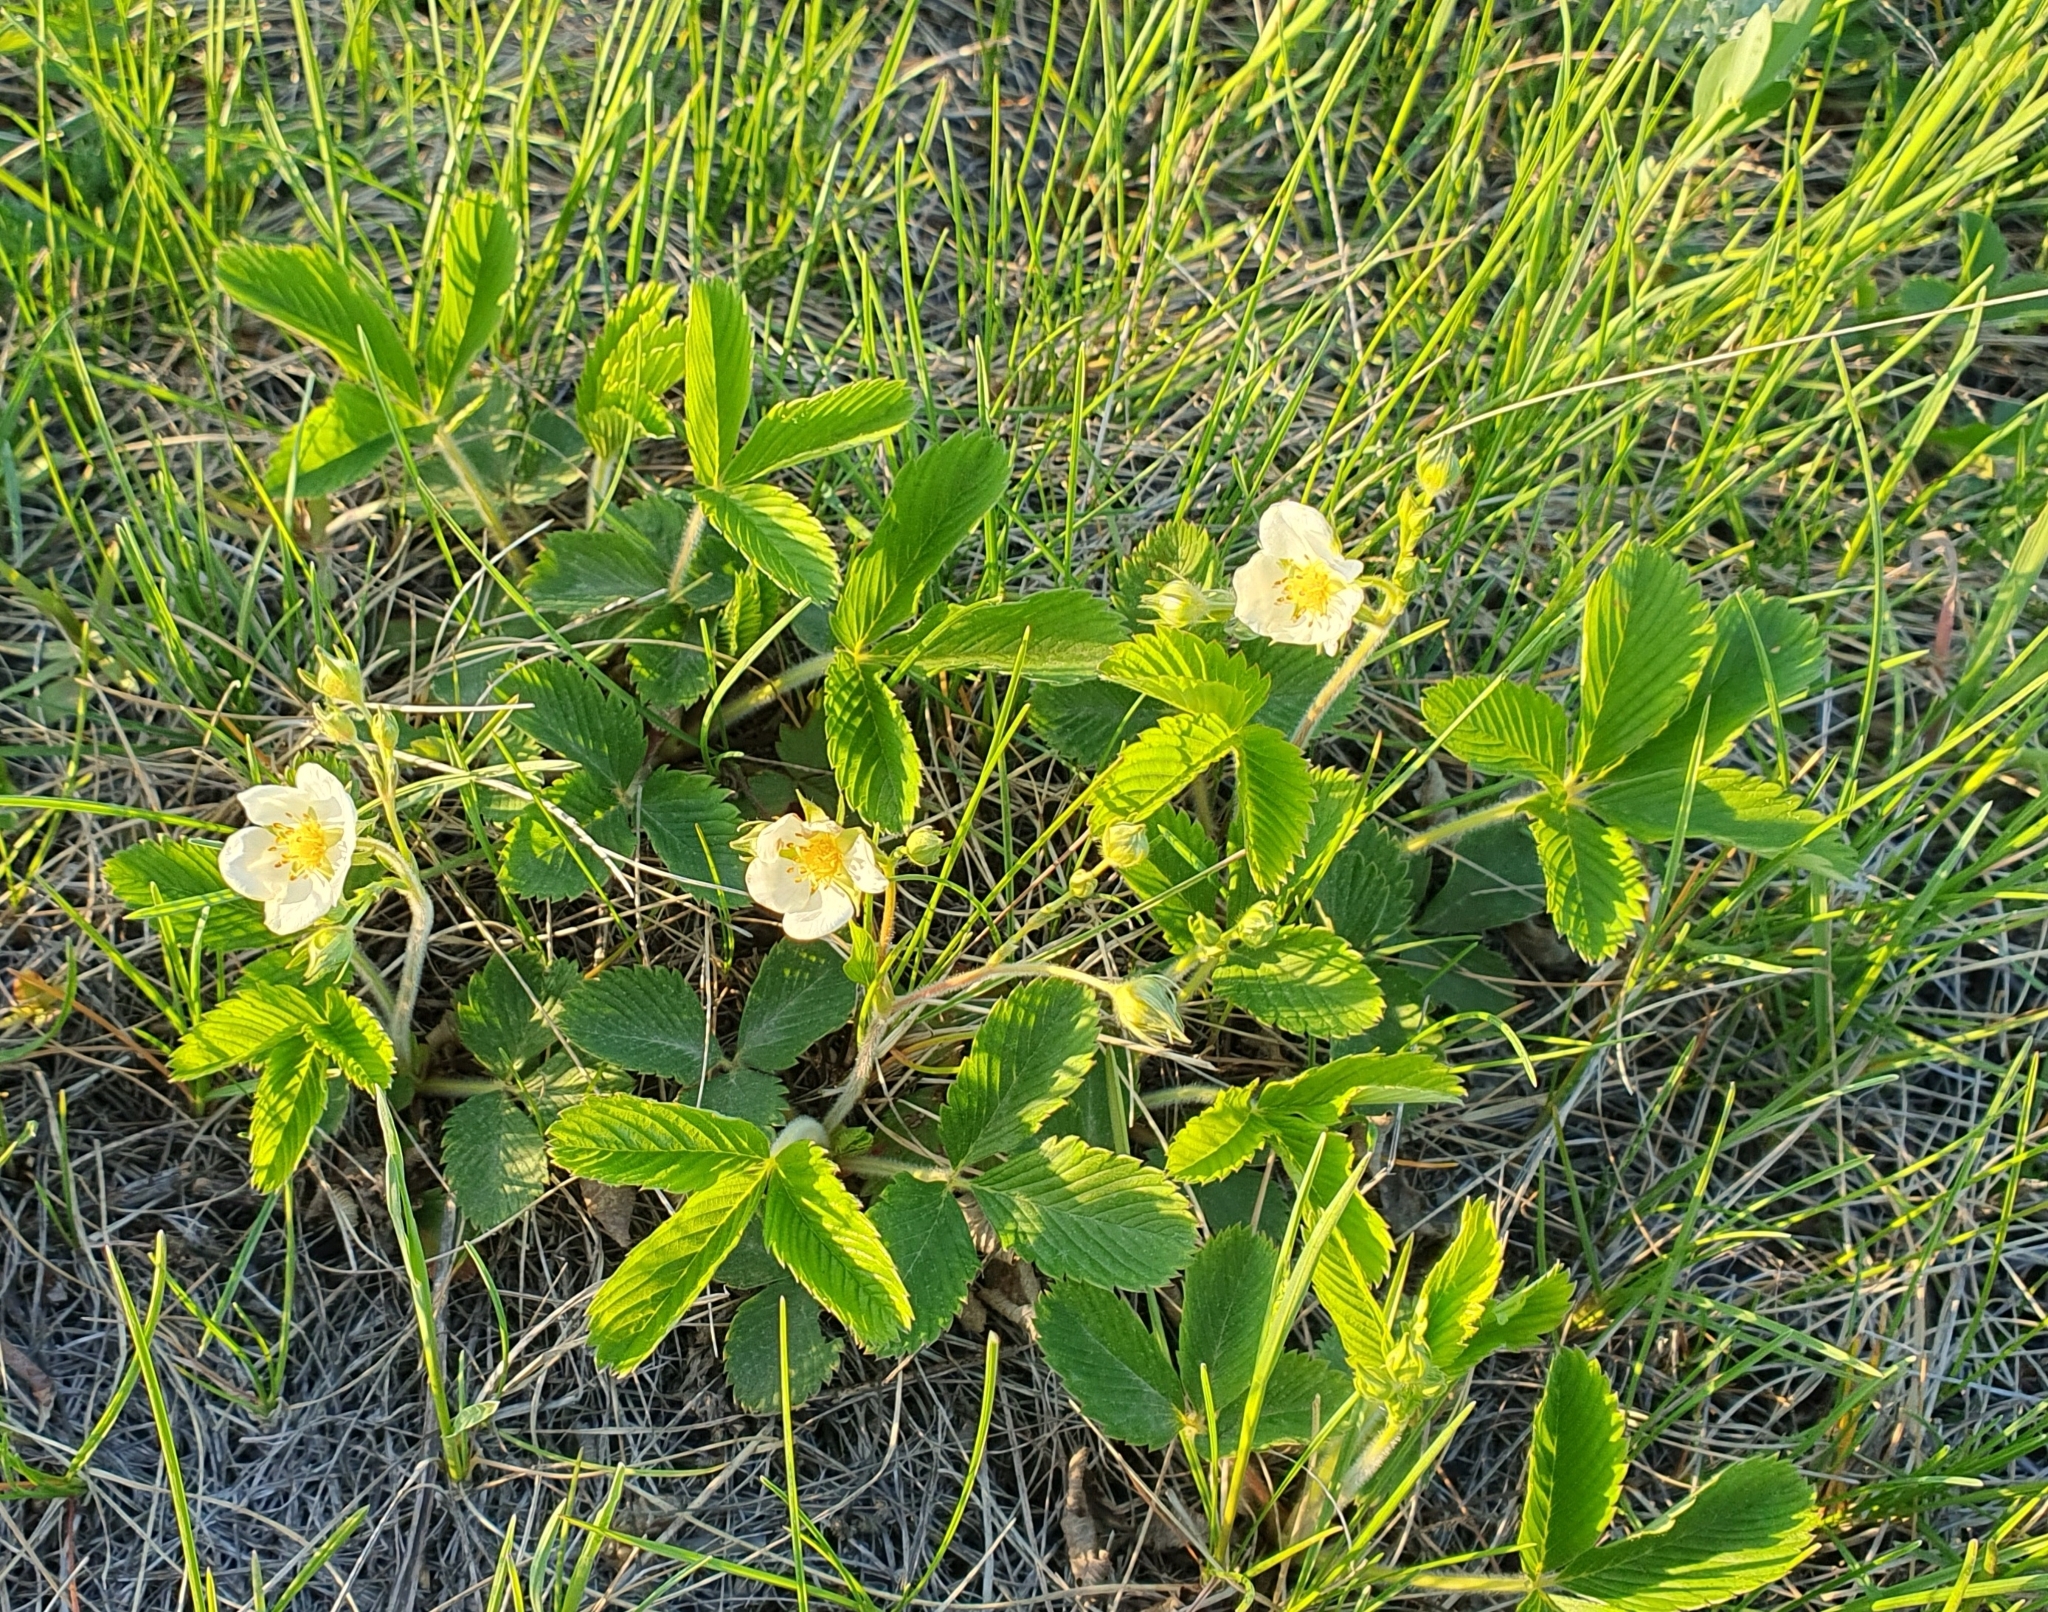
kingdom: Plantae
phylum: Tracheophyta
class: Magnoliopsida
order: Rosales
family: Rosaceae
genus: Fragaria
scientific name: Fragaria viridis
